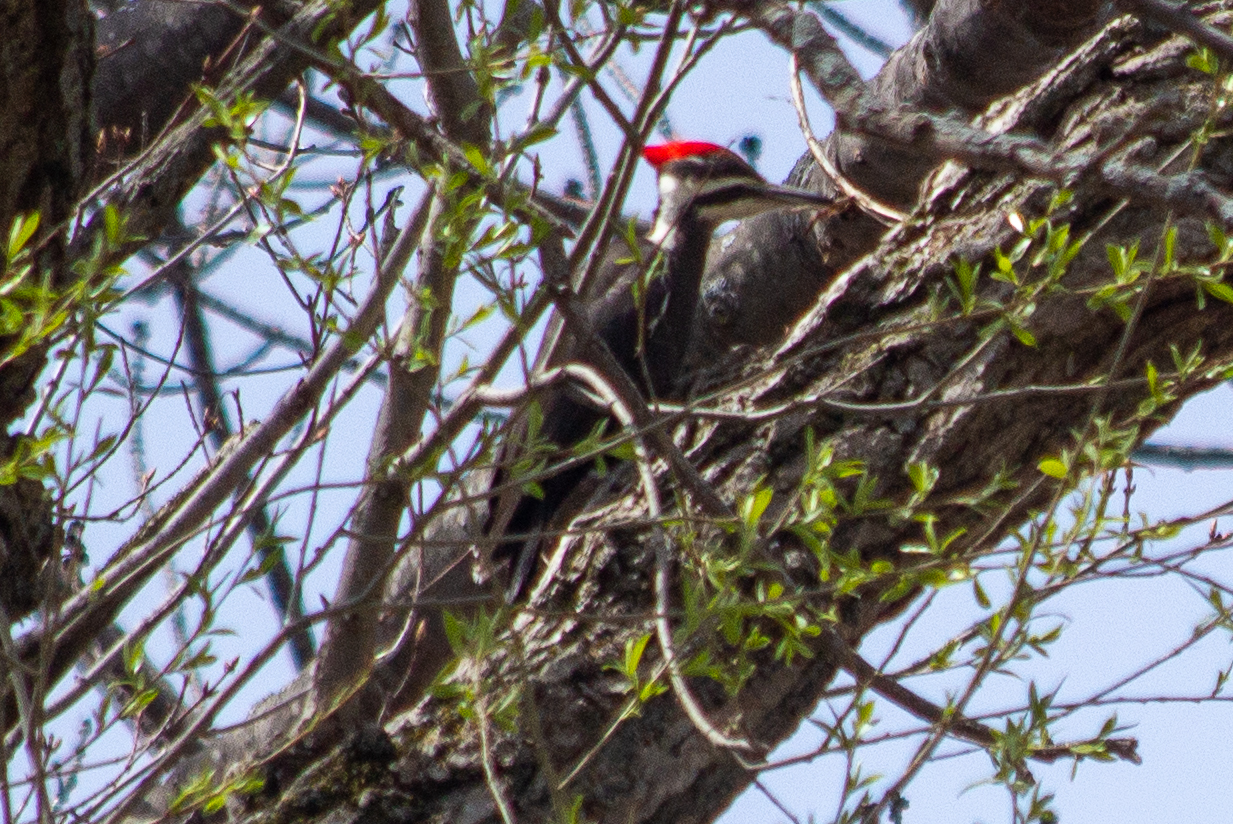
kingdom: Animalia
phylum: Chordata
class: Aves
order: Piciformes
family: Picidae
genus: Dryocopus
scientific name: Dryocopus pileatus
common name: Pileated woodpecker
